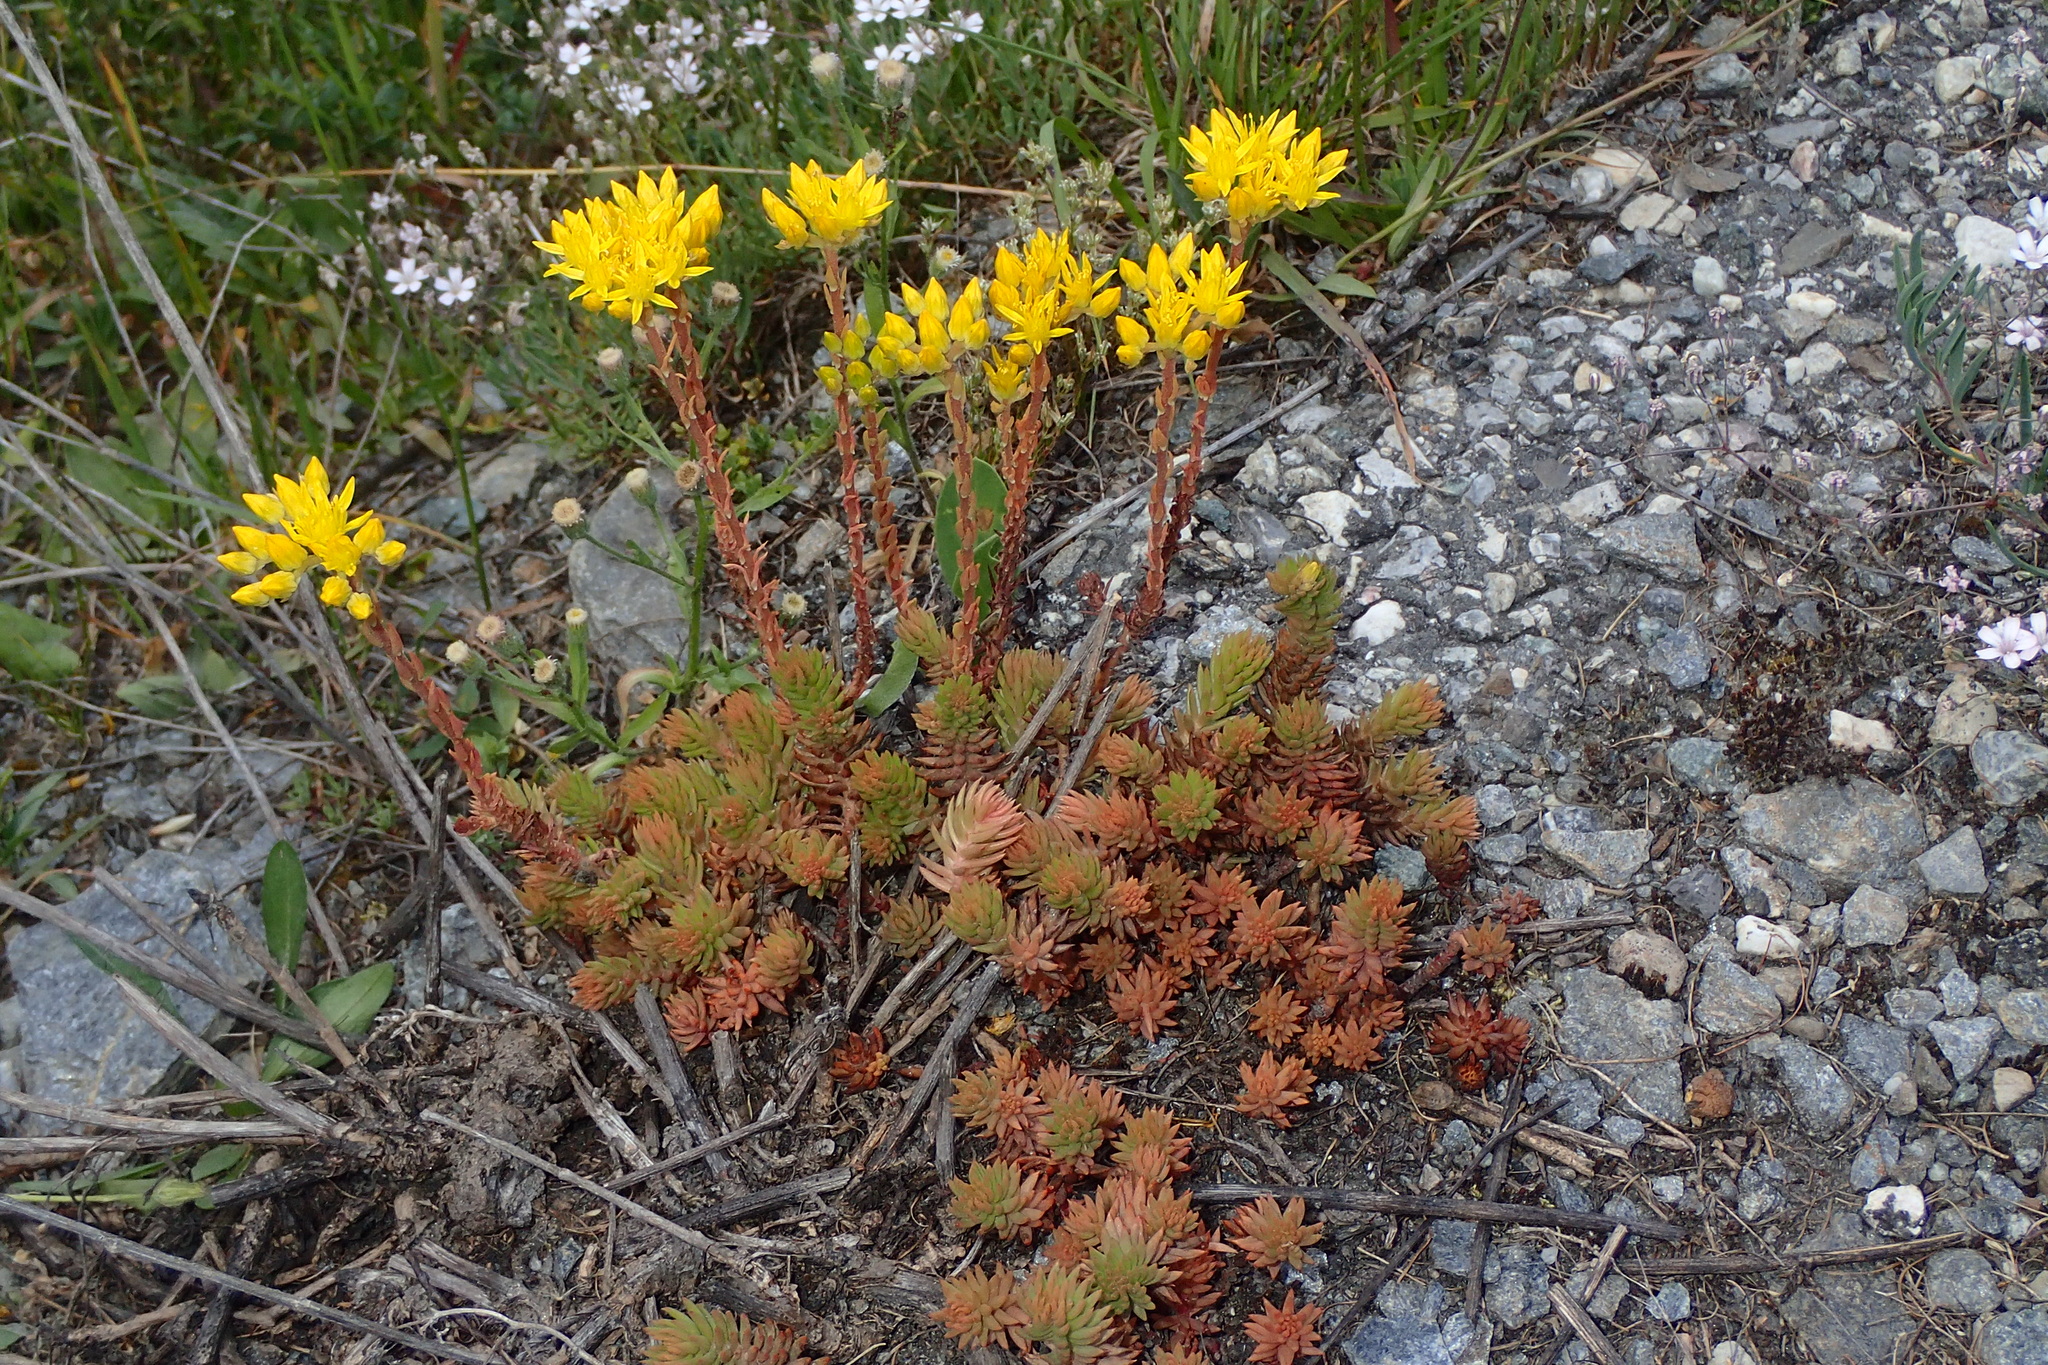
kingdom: Plantae
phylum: Tracheophyta
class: Magnoliopsida
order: Saxifragales
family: Crassulaceae
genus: Petrosedum
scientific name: Petrosedum montanum
